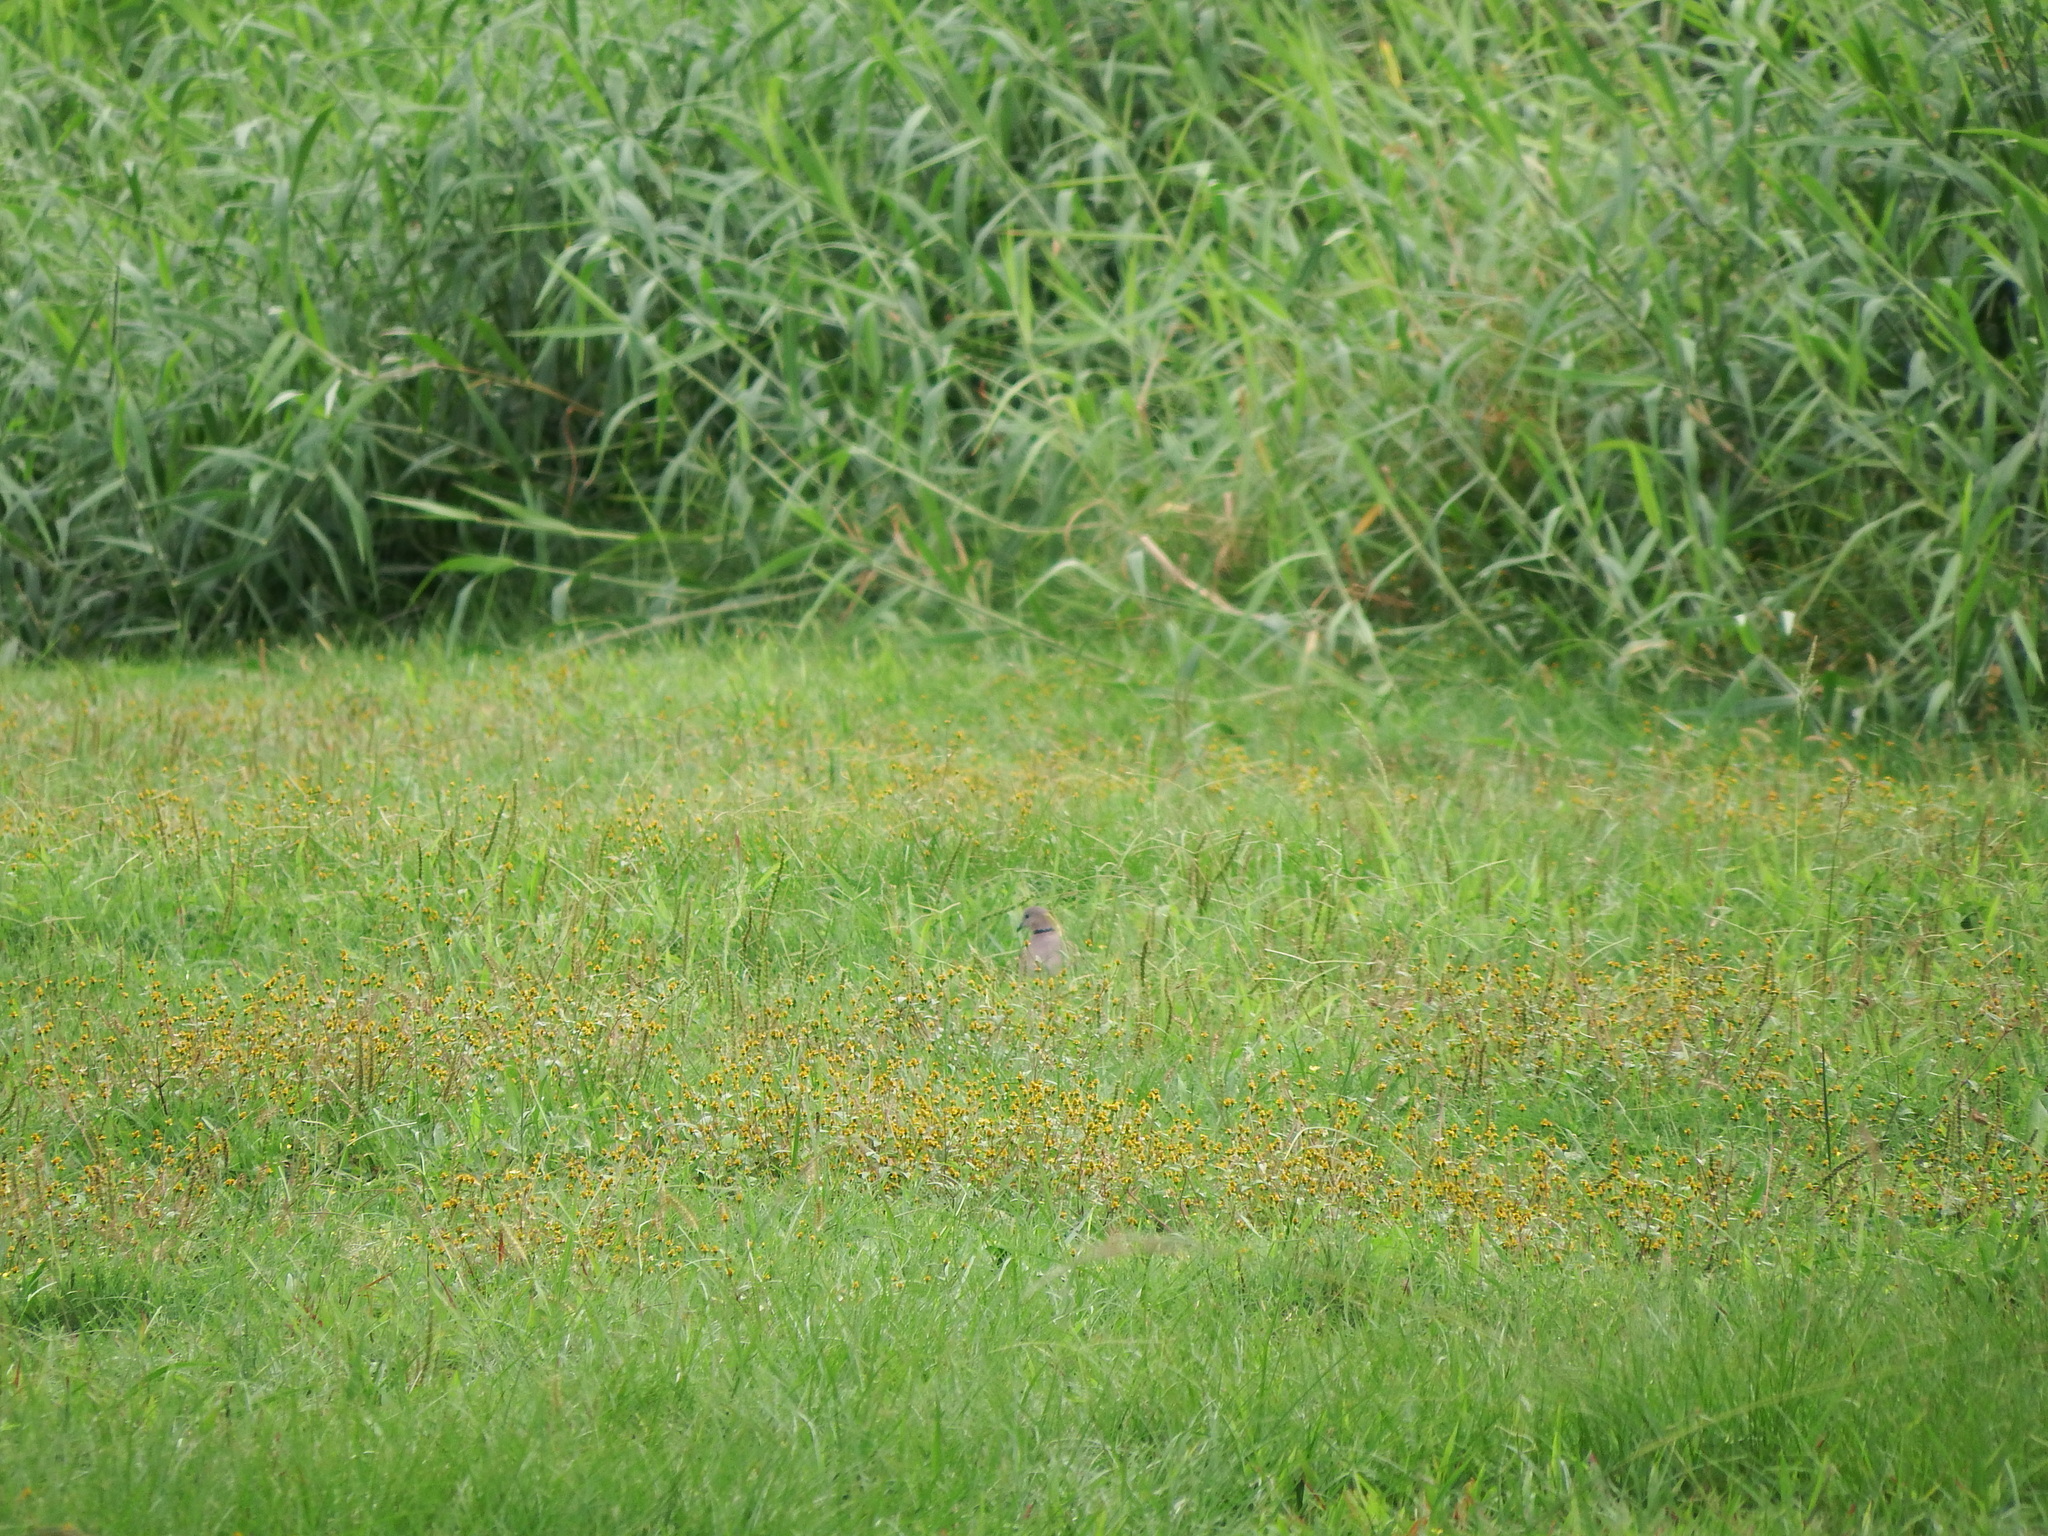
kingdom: Animalia
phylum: Chordata
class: Aves
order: Columbiformes
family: Columbidae
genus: Streptopelia
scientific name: Streptopelia tranquebarica
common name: Red turtle dove
